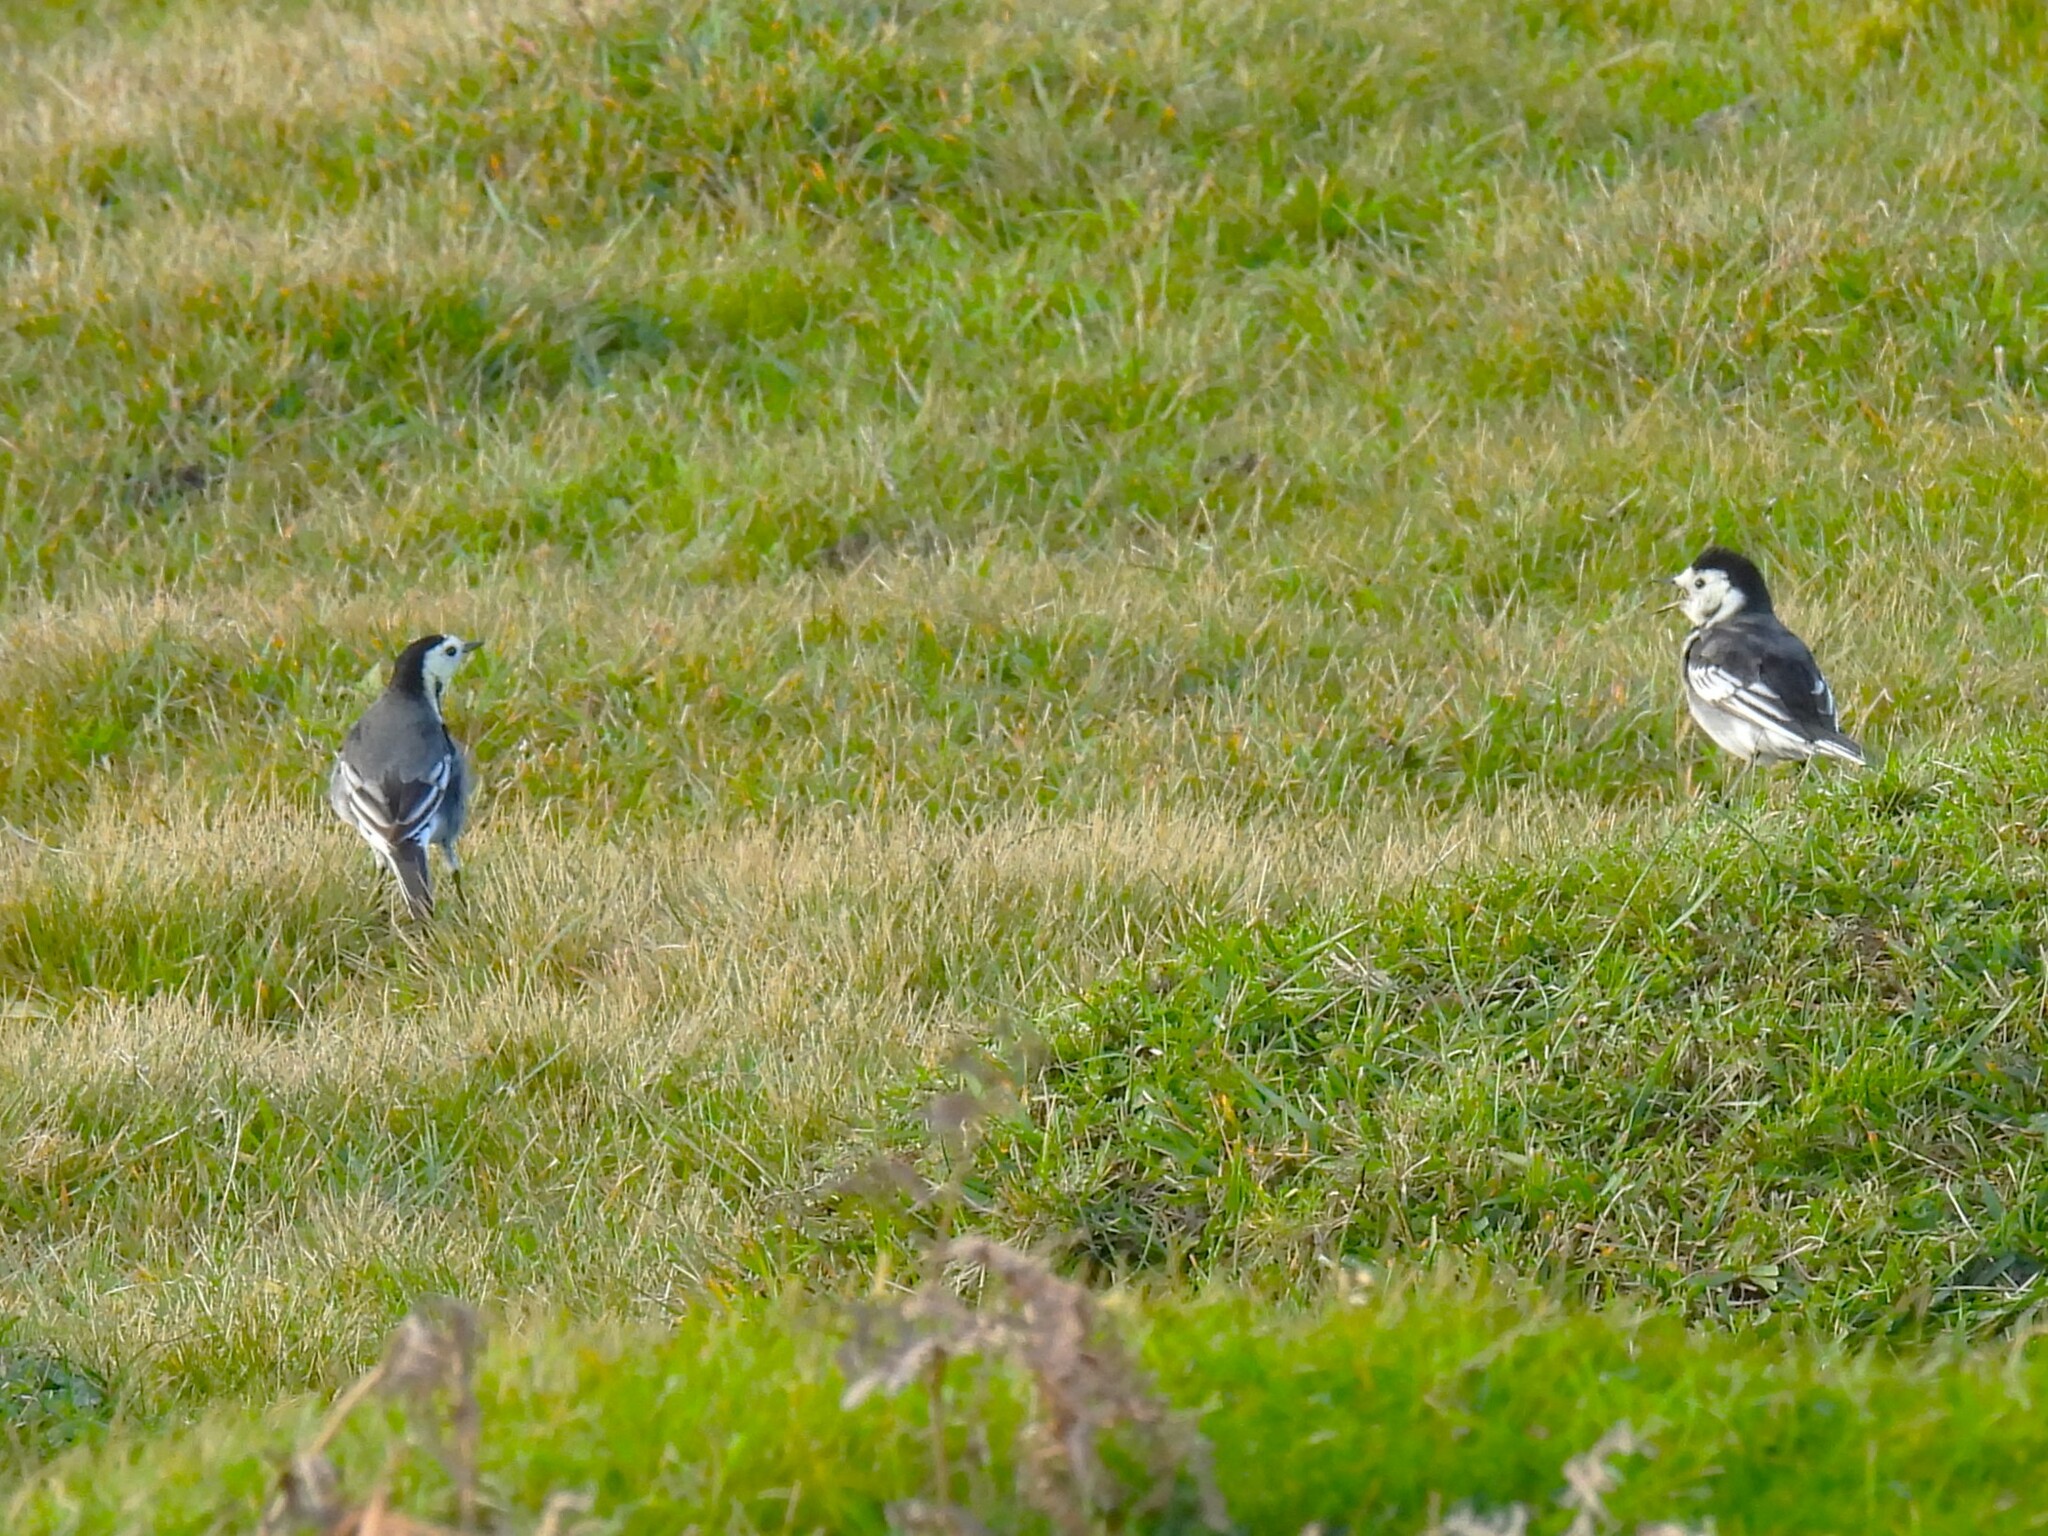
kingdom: Animalia
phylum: Chordata
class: Aves
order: Passeriformes
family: Motacillidae
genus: Motacilla
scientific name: Motacilla alba
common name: White wagtail
